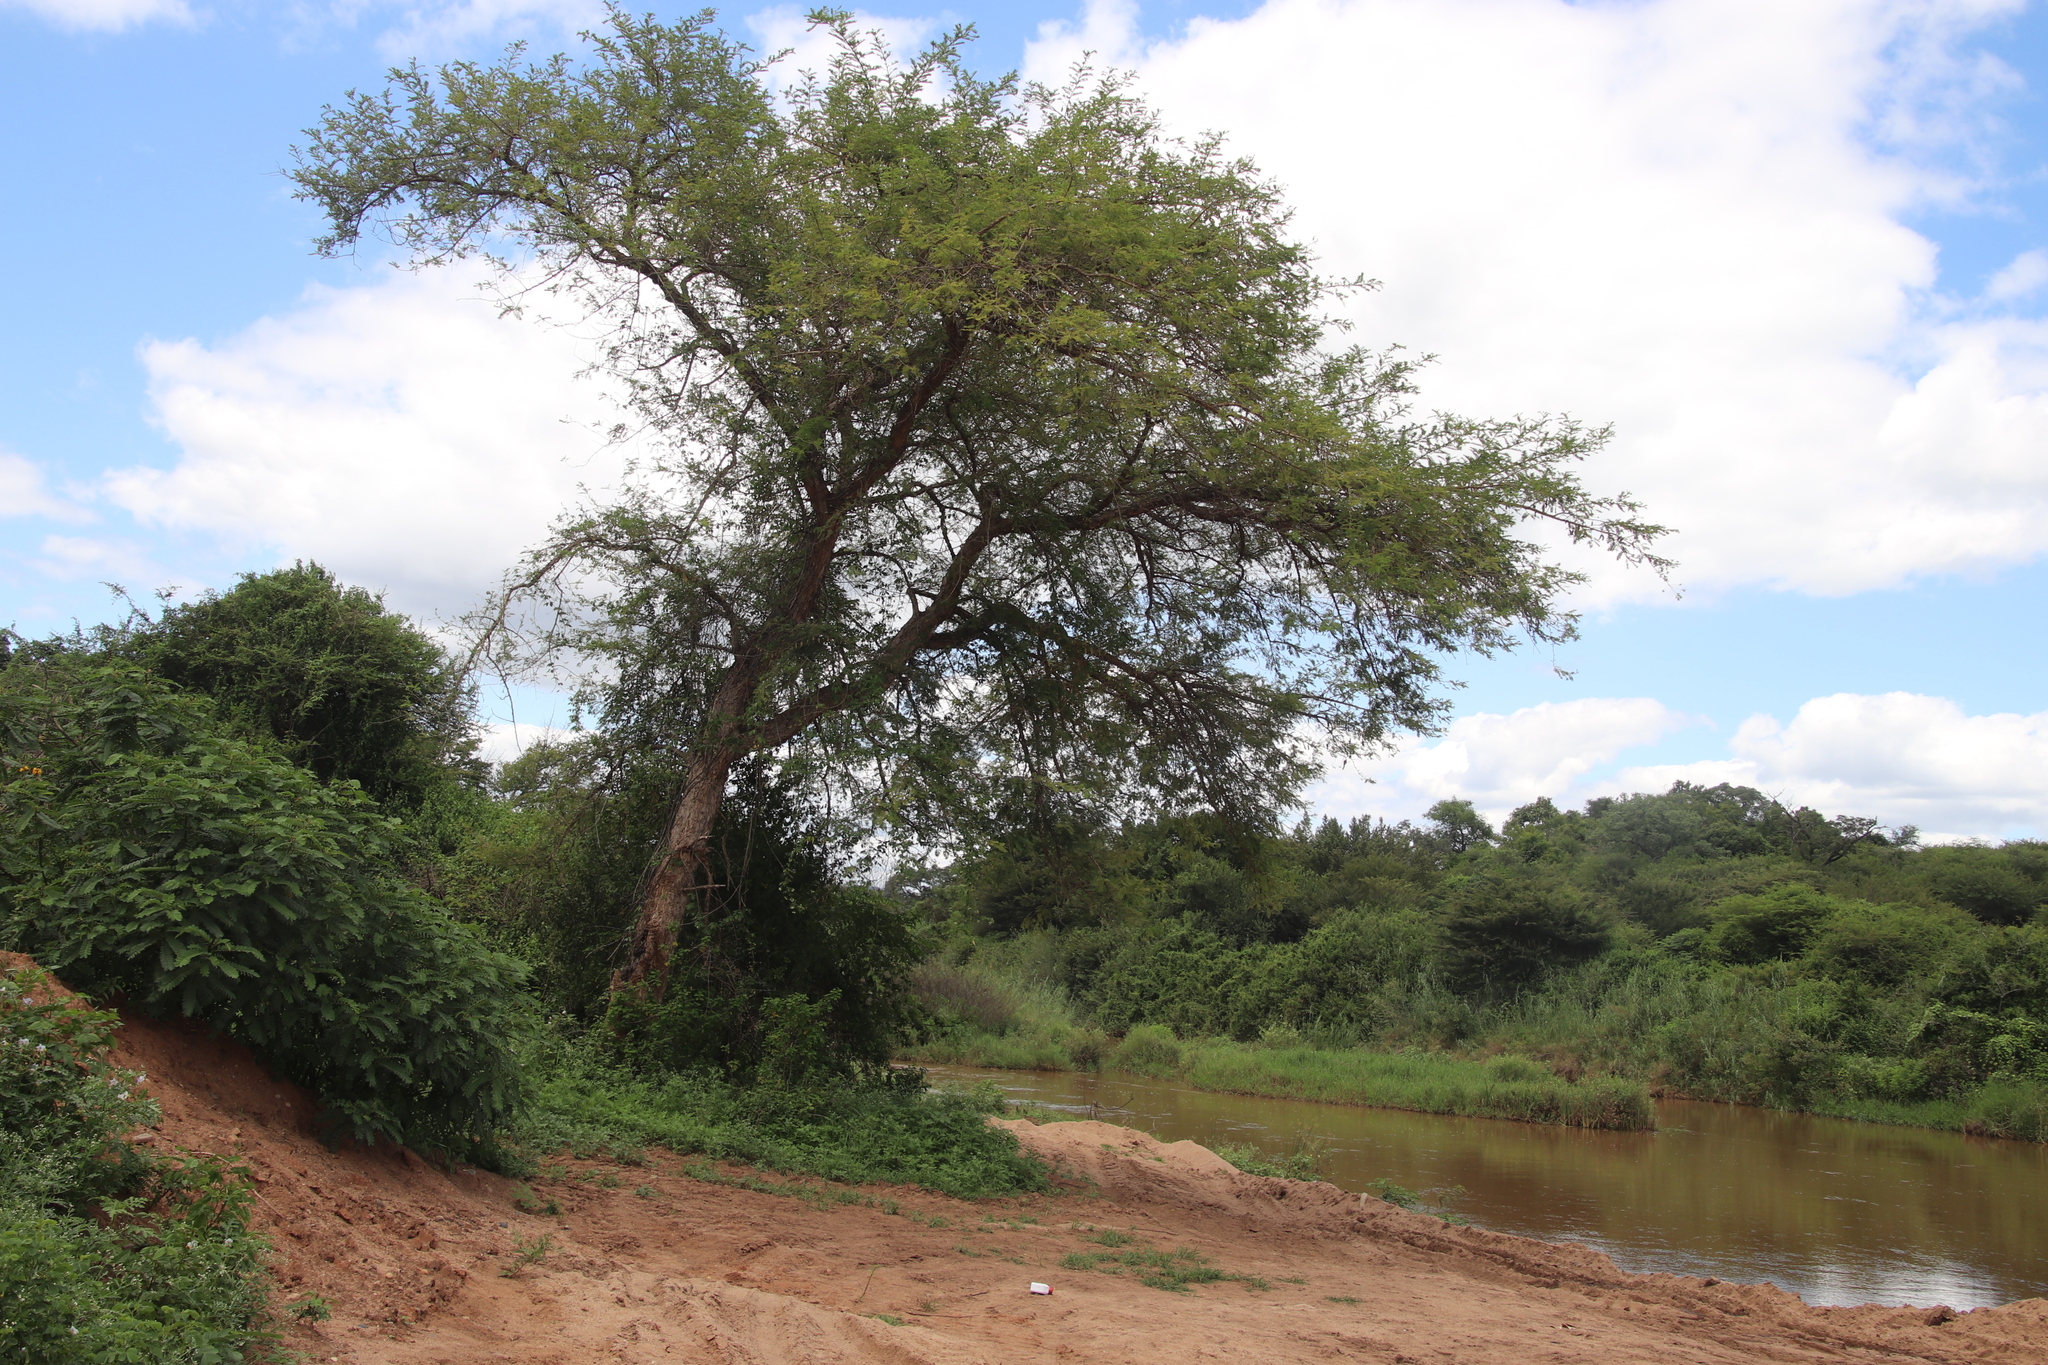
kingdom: Plantae
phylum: Tracheophyta
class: Magnoliopsida
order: Fabales
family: Fabaceae
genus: Vachellia
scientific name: Vachellia sieberiana
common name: Flat-topped thorn
